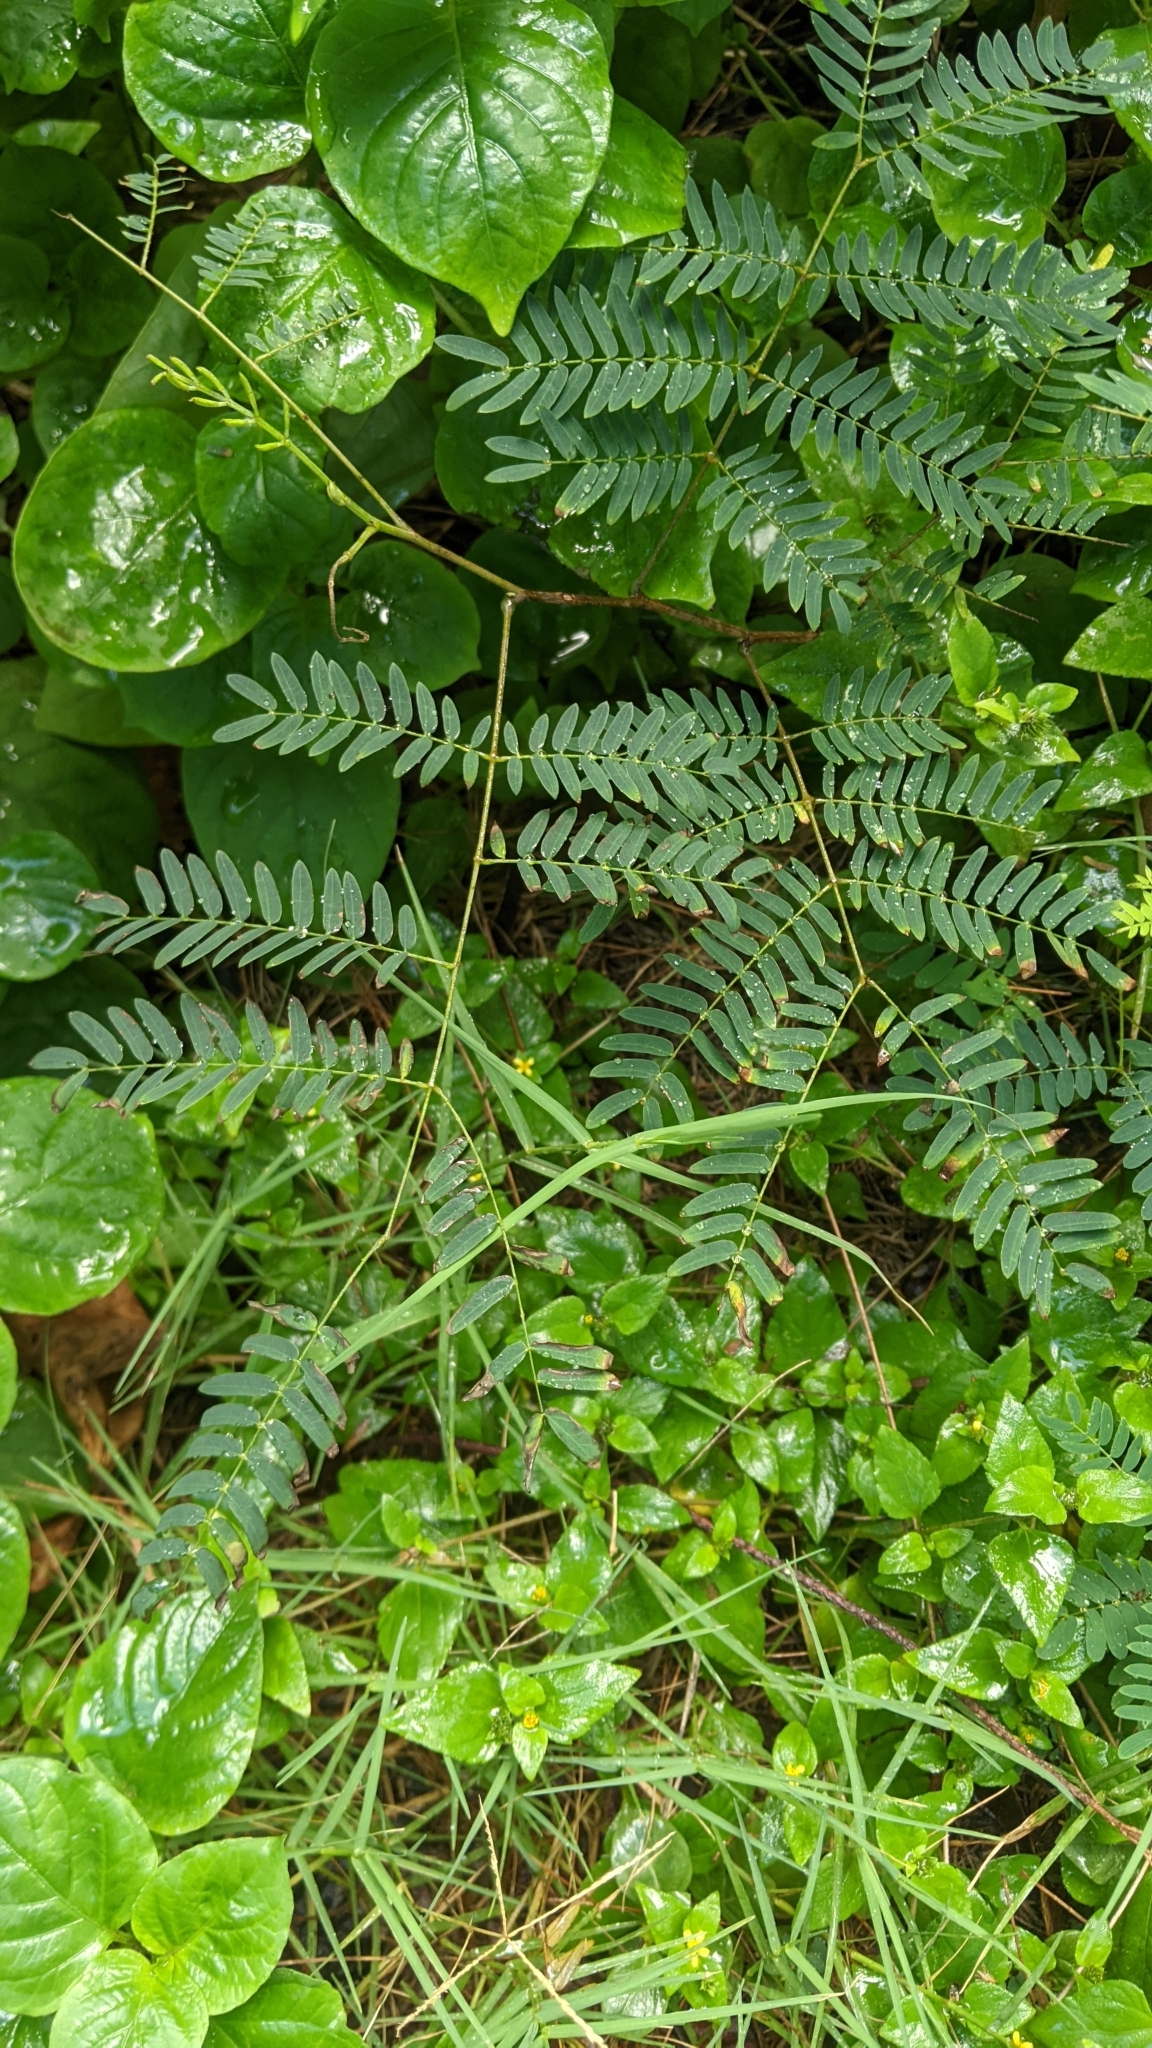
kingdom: Plantae
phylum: Tracheophyta
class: Magnoliopsida
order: Fabales
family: Fabaceae
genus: Leucaena
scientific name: Leucaena leucocephala
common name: White leadtree
